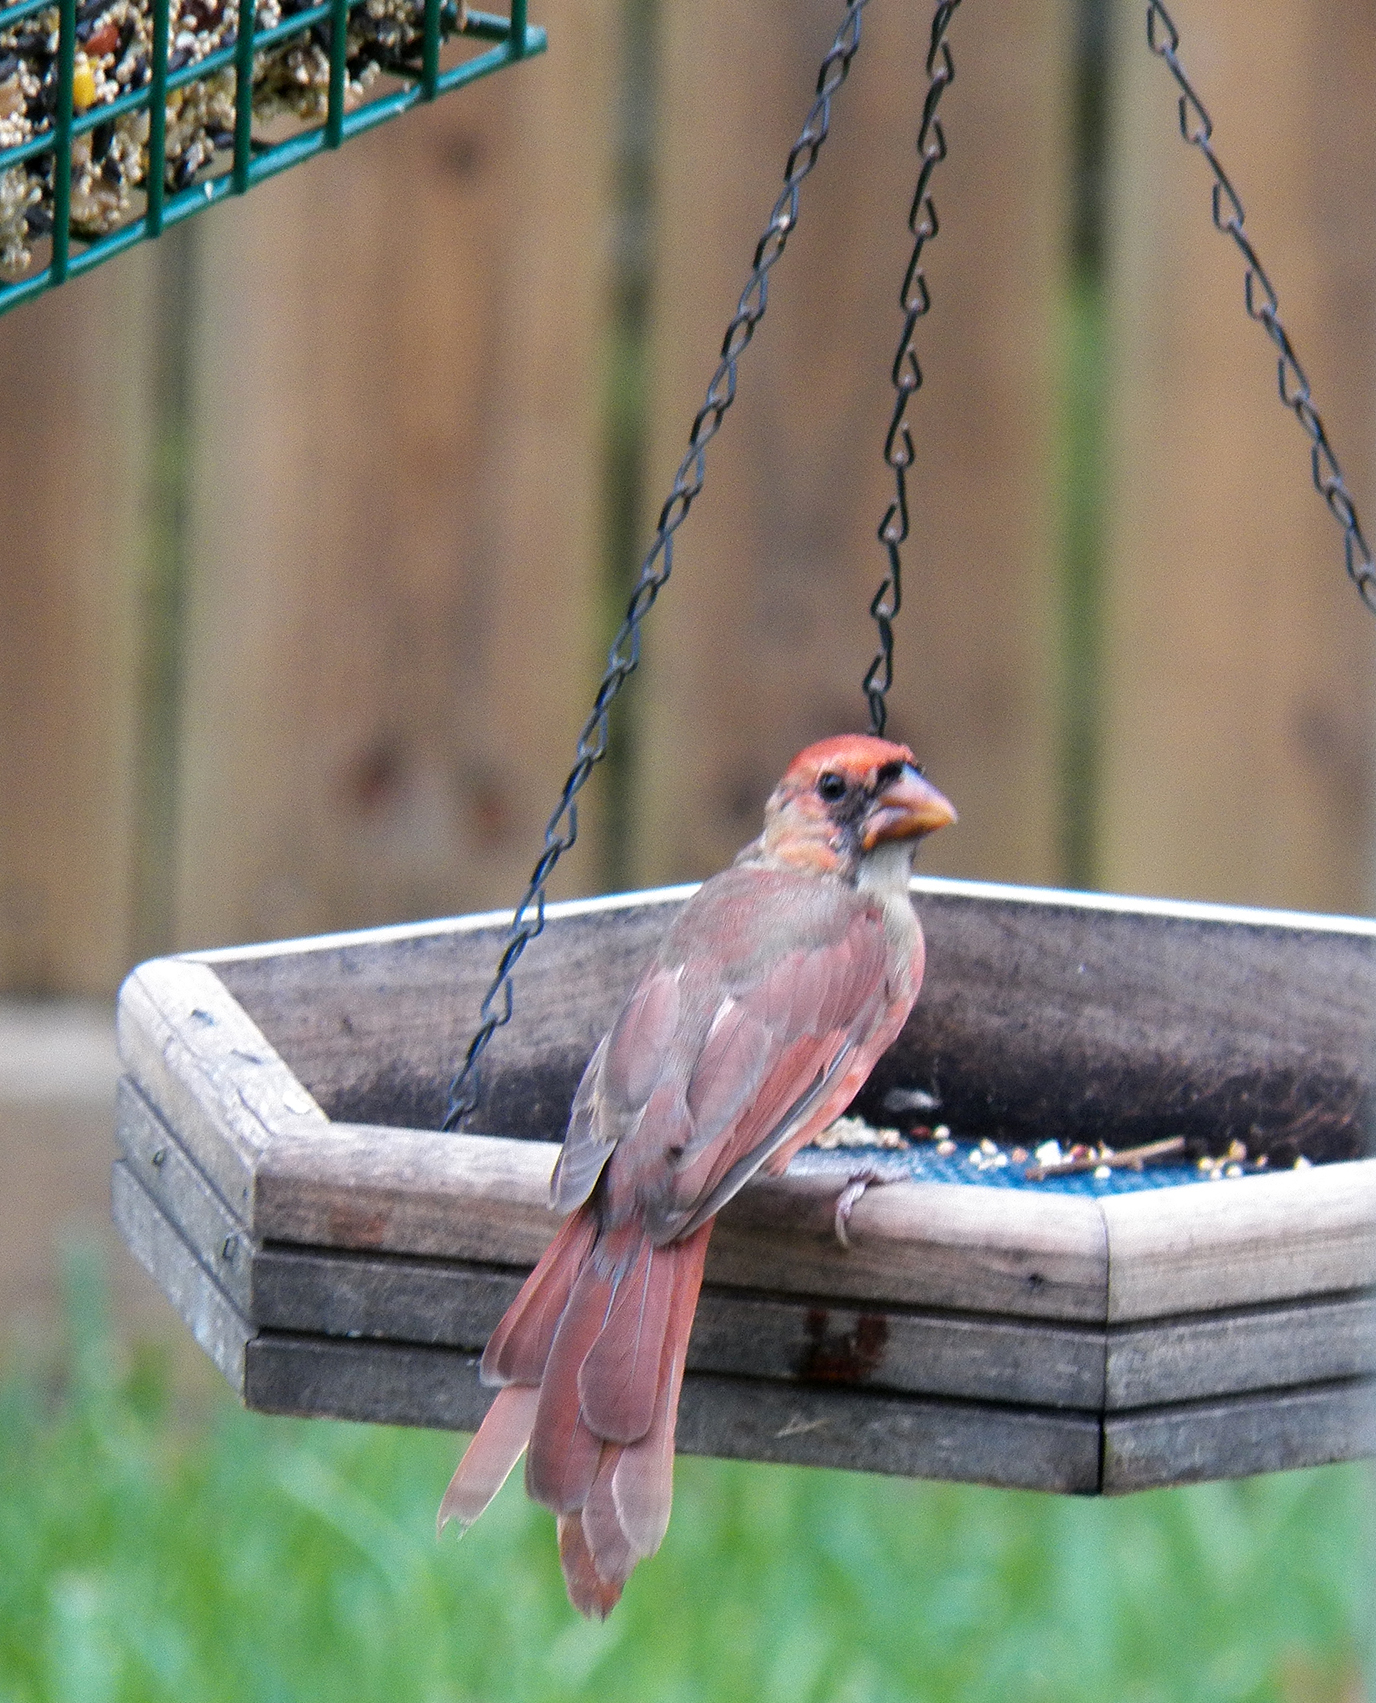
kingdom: Animalia
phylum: Chordata
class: Aves
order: Passeriformes
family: Cardinalidae
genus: Cardinalis
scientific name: Cardinalis cardinalis
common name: Northern cardinal
